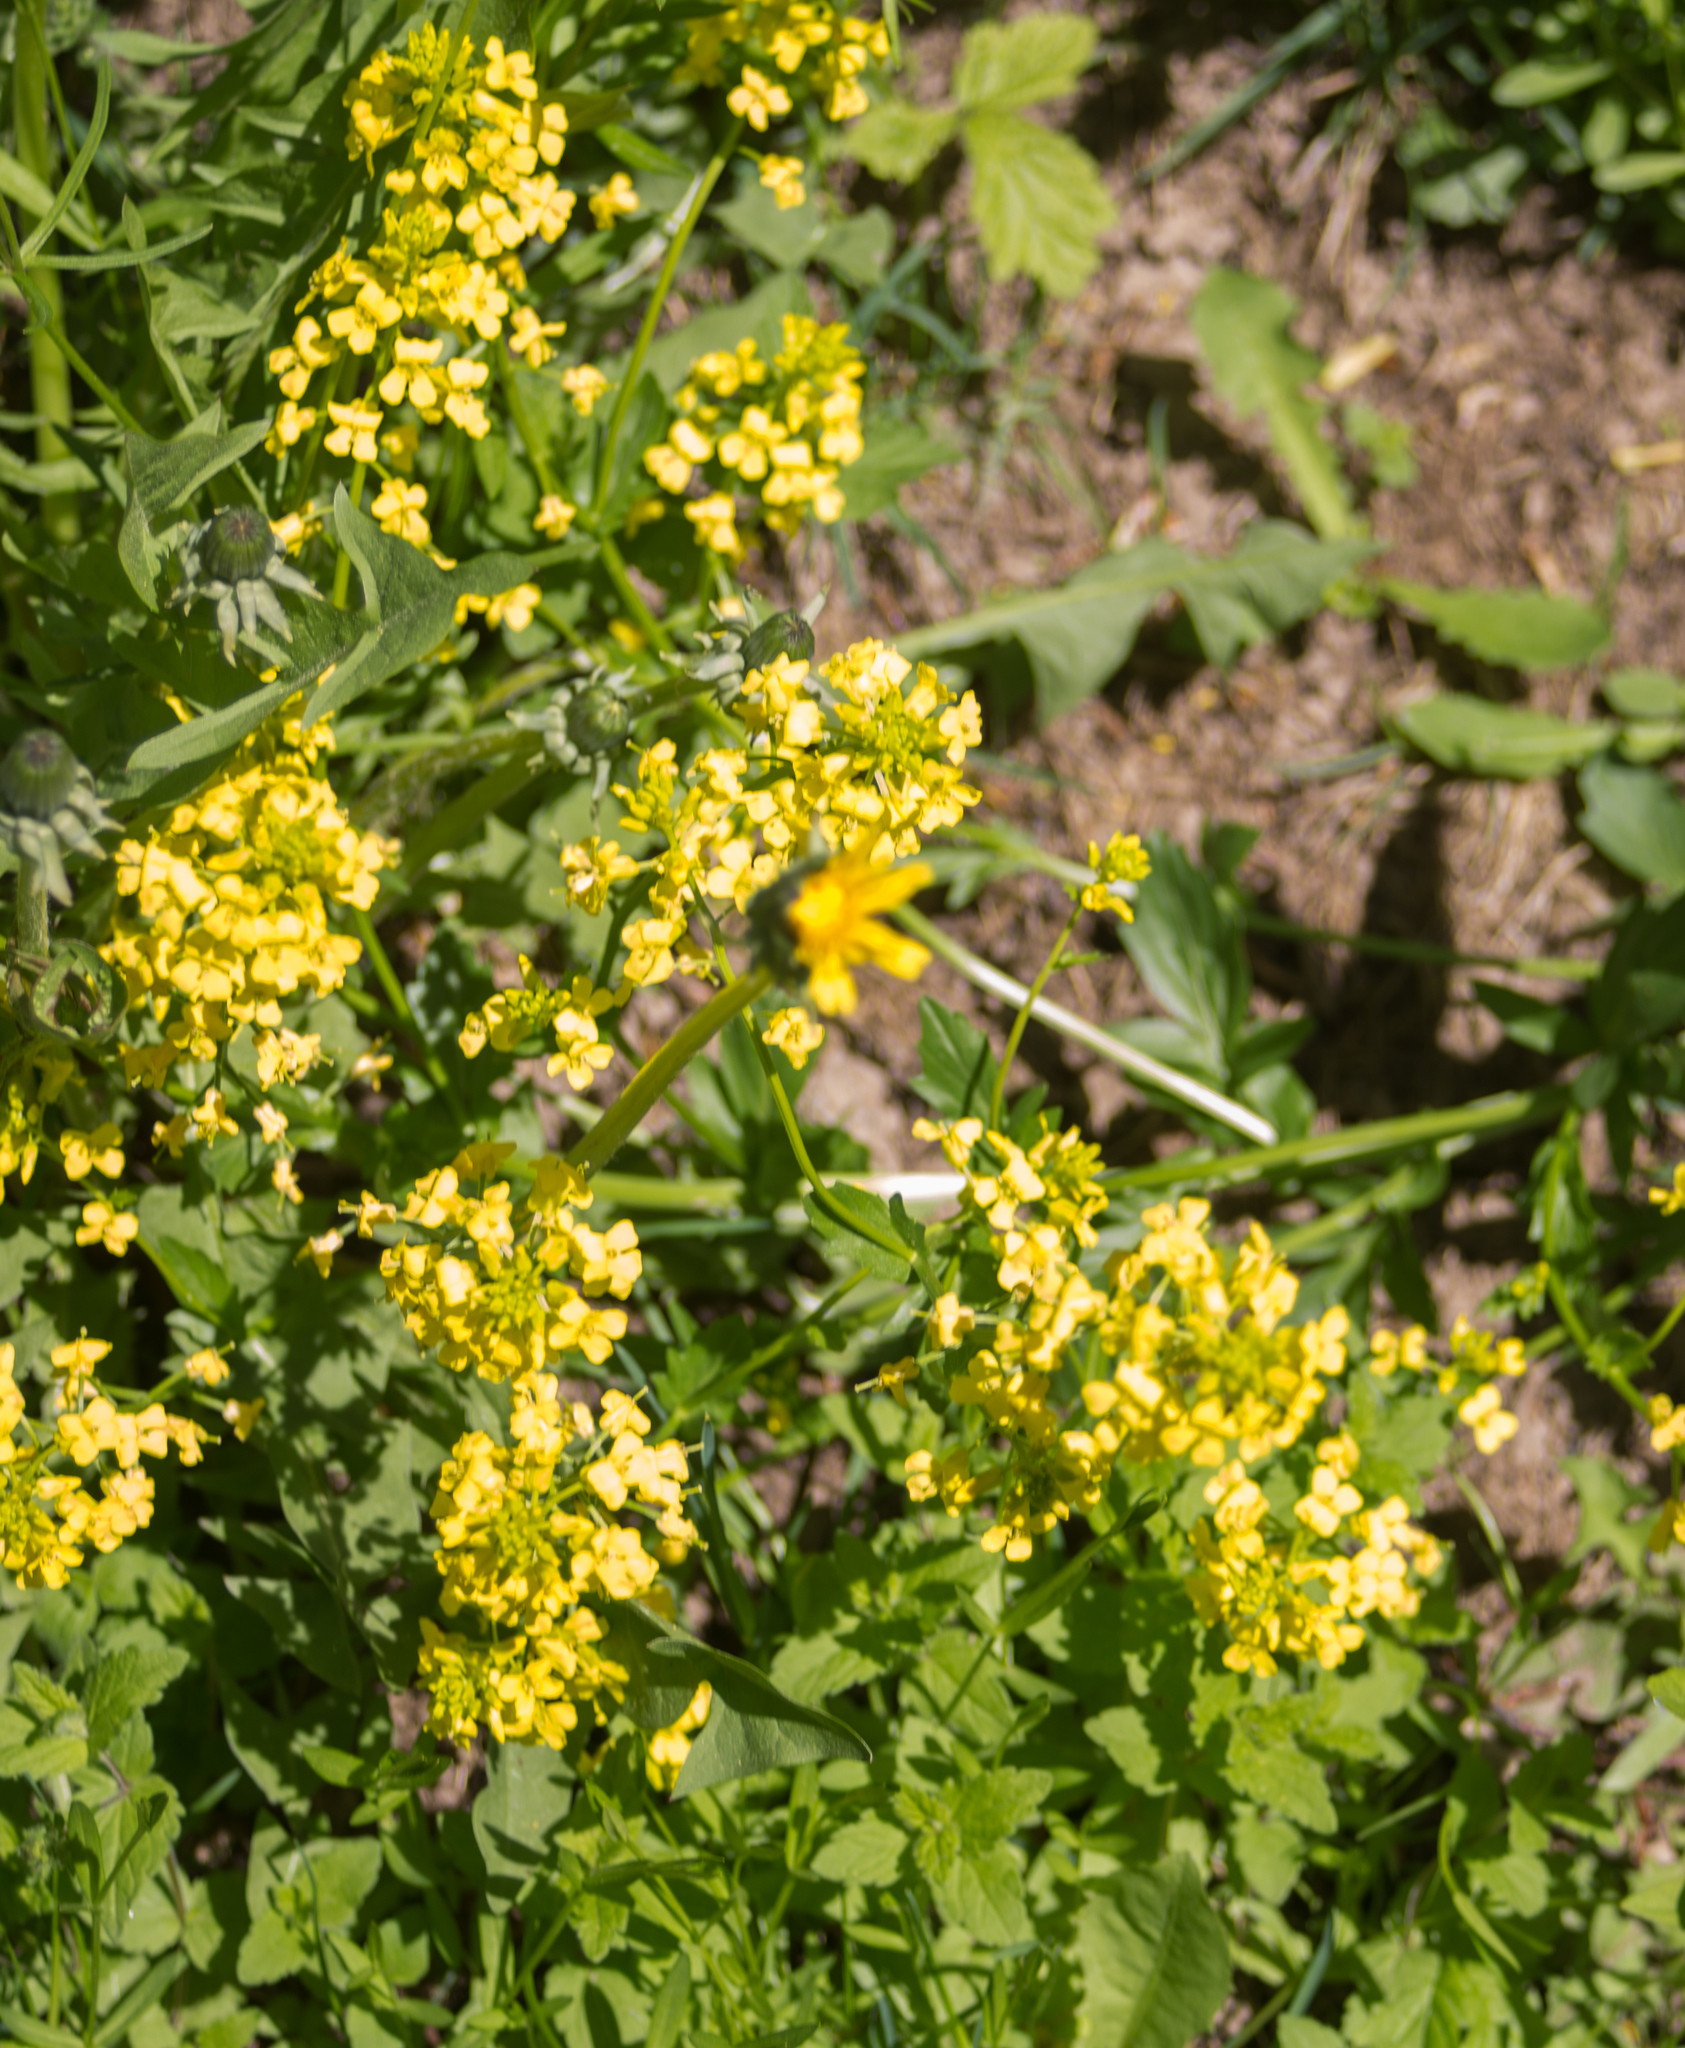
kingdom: Plantae
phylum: Tracheophyta
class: Magnoliopsida
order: Brassicales
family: Brassicaceae
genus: Barbarea
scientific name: Barbarea vulgaris
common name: Cressy-greens
